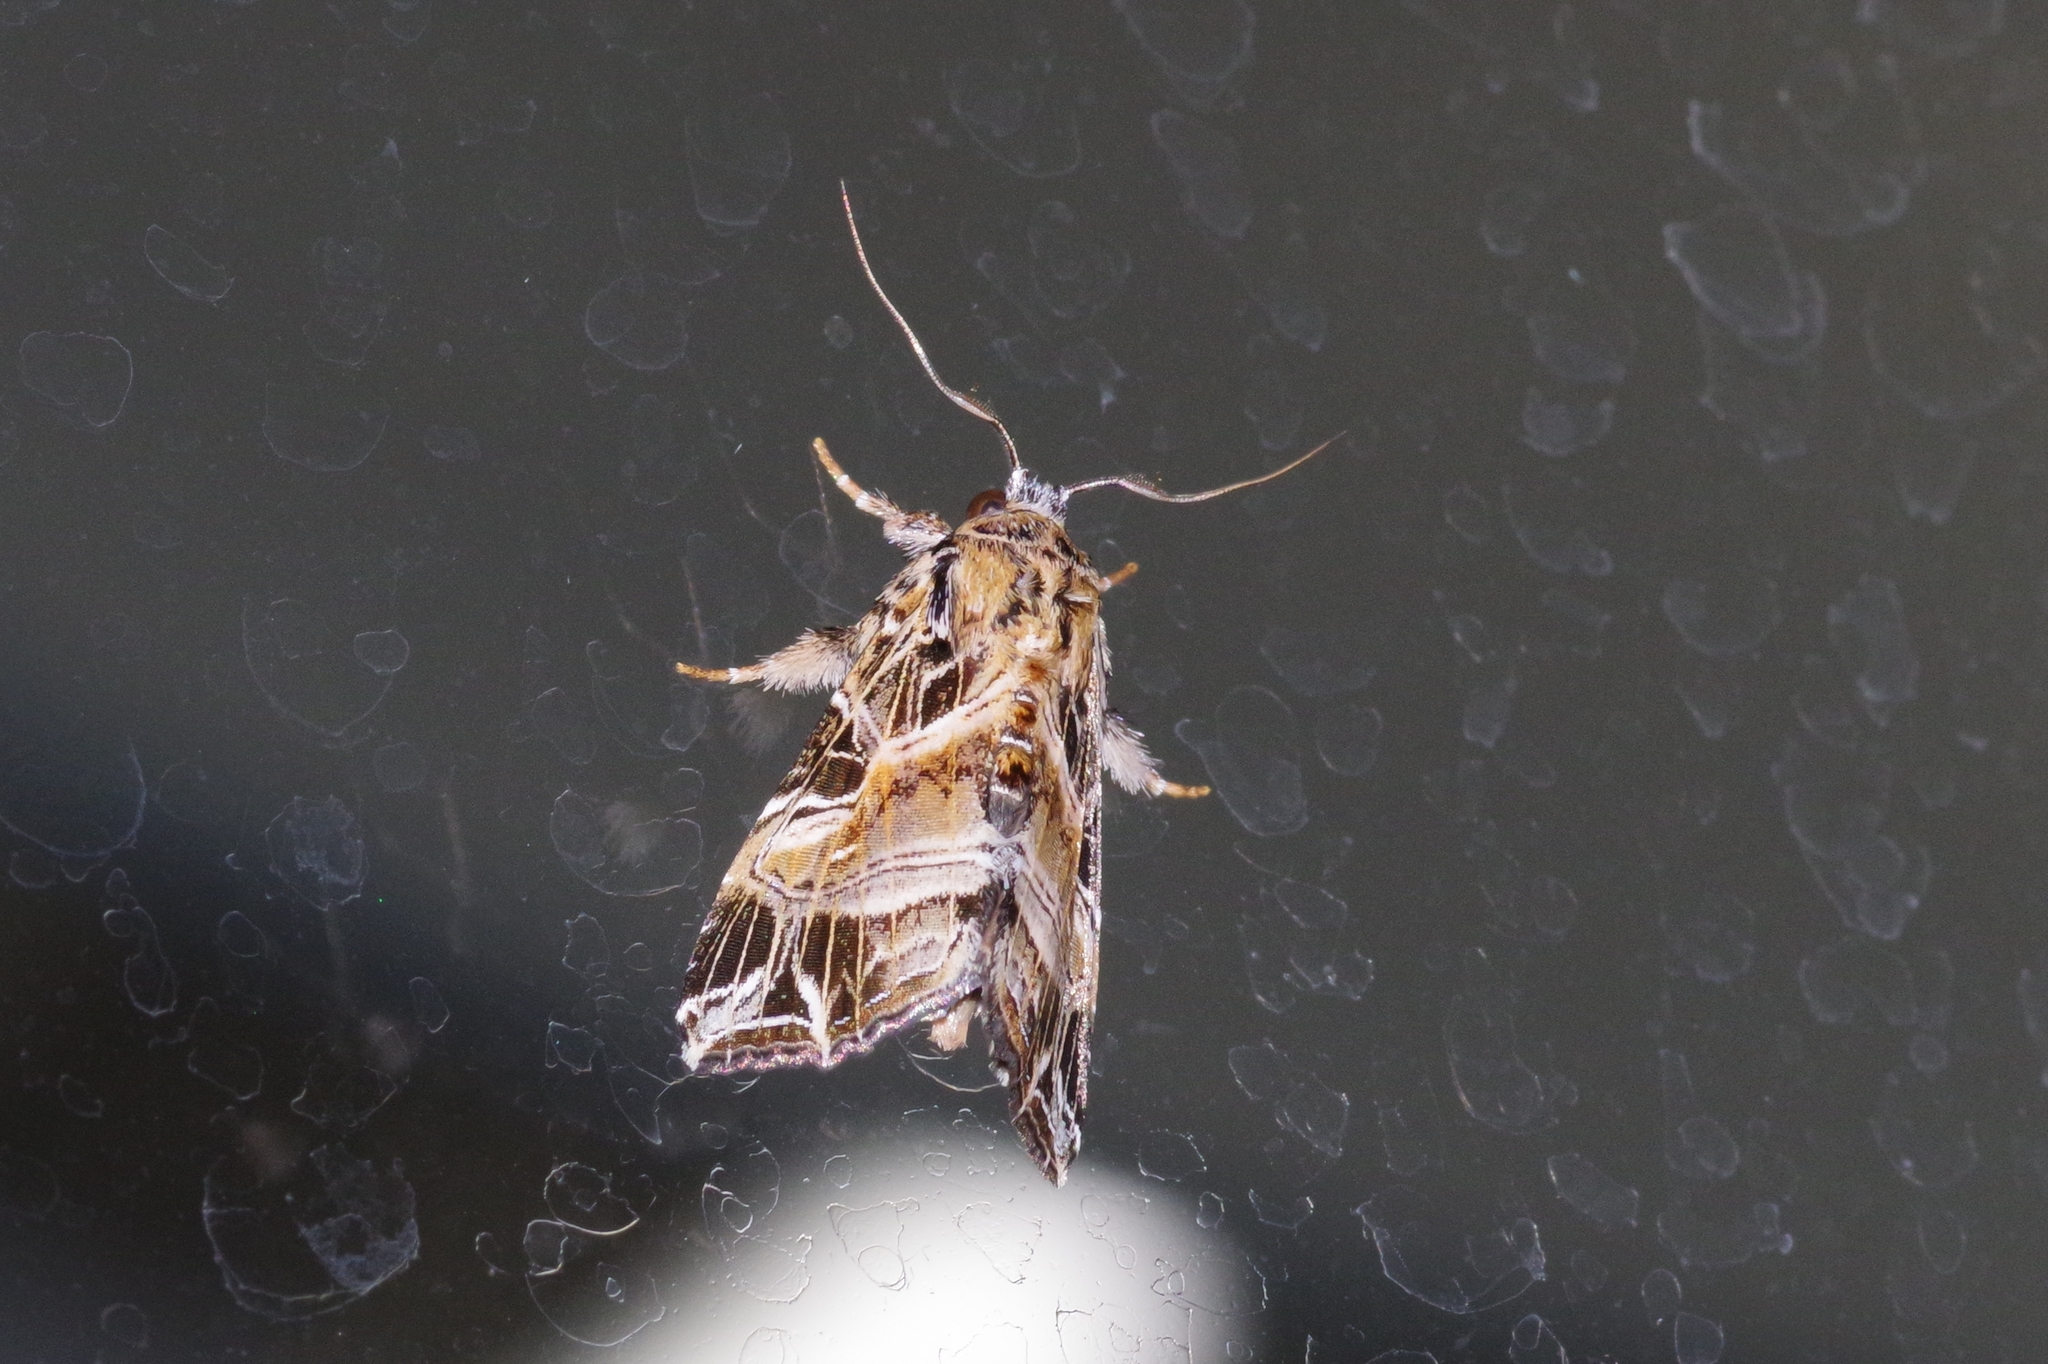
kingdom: Animalia
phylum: Arthropoda
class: Insecta
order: Lepidoptera
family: Noctuidae
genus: Callopistria
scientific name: Callopistria maillardi
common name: Cutworm
